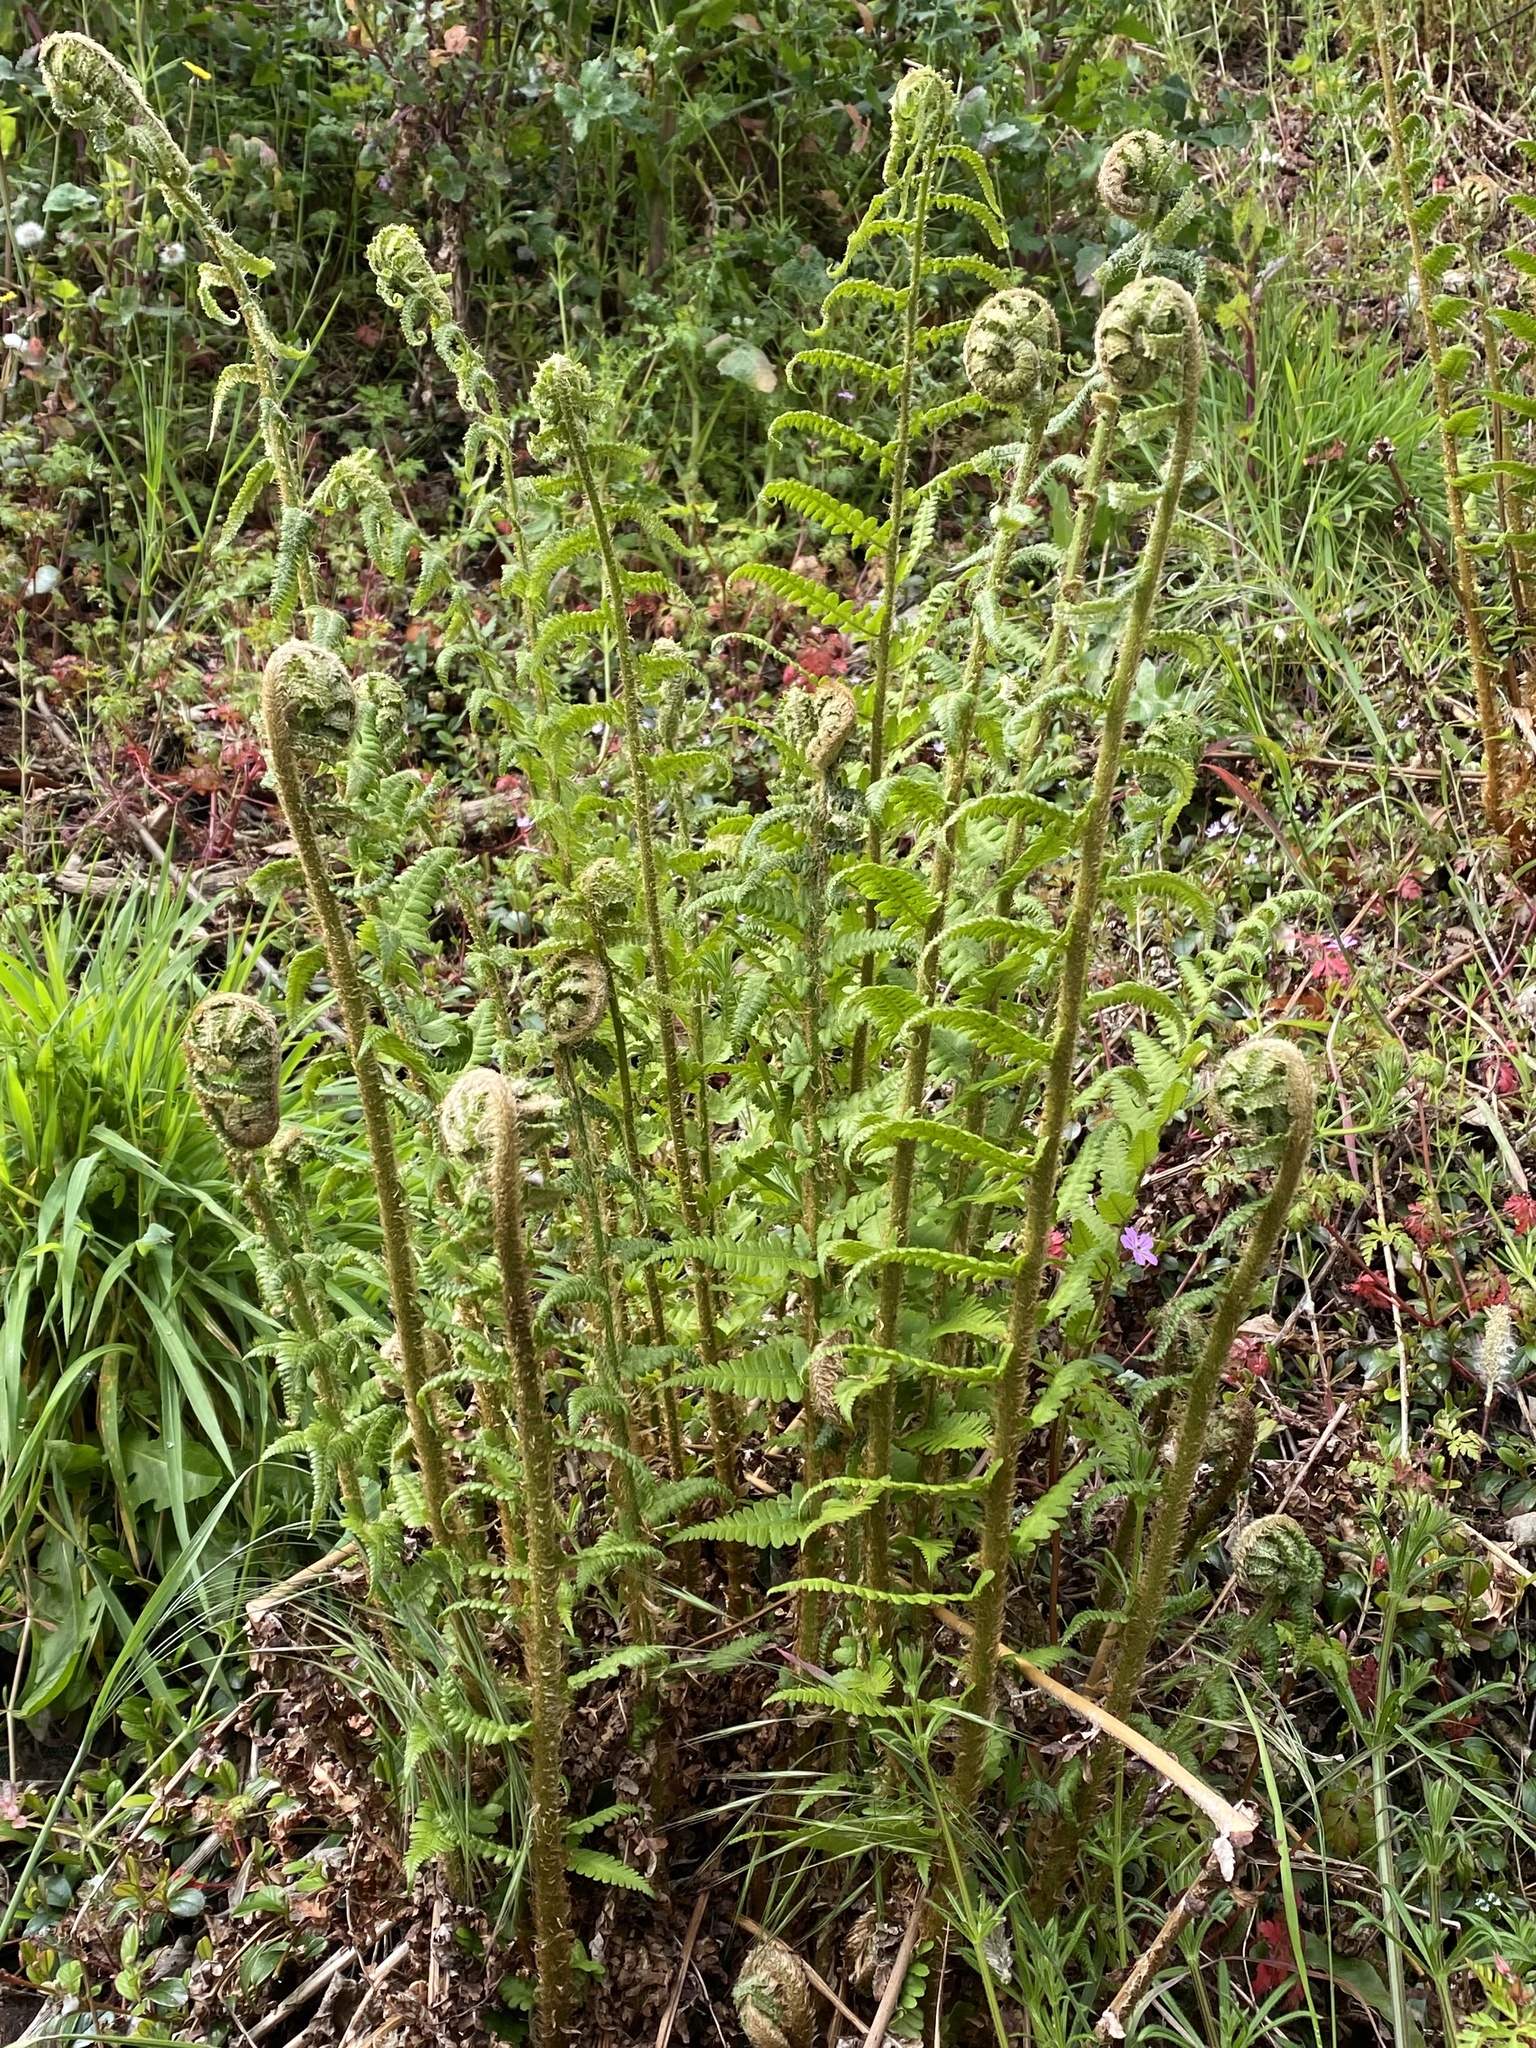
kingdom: Plantae
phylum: Tracheophyta
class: Polypodiopsida
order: Polypodiales
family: Dryopteridaceae
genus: Dryopteris
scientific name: Dryopteris
